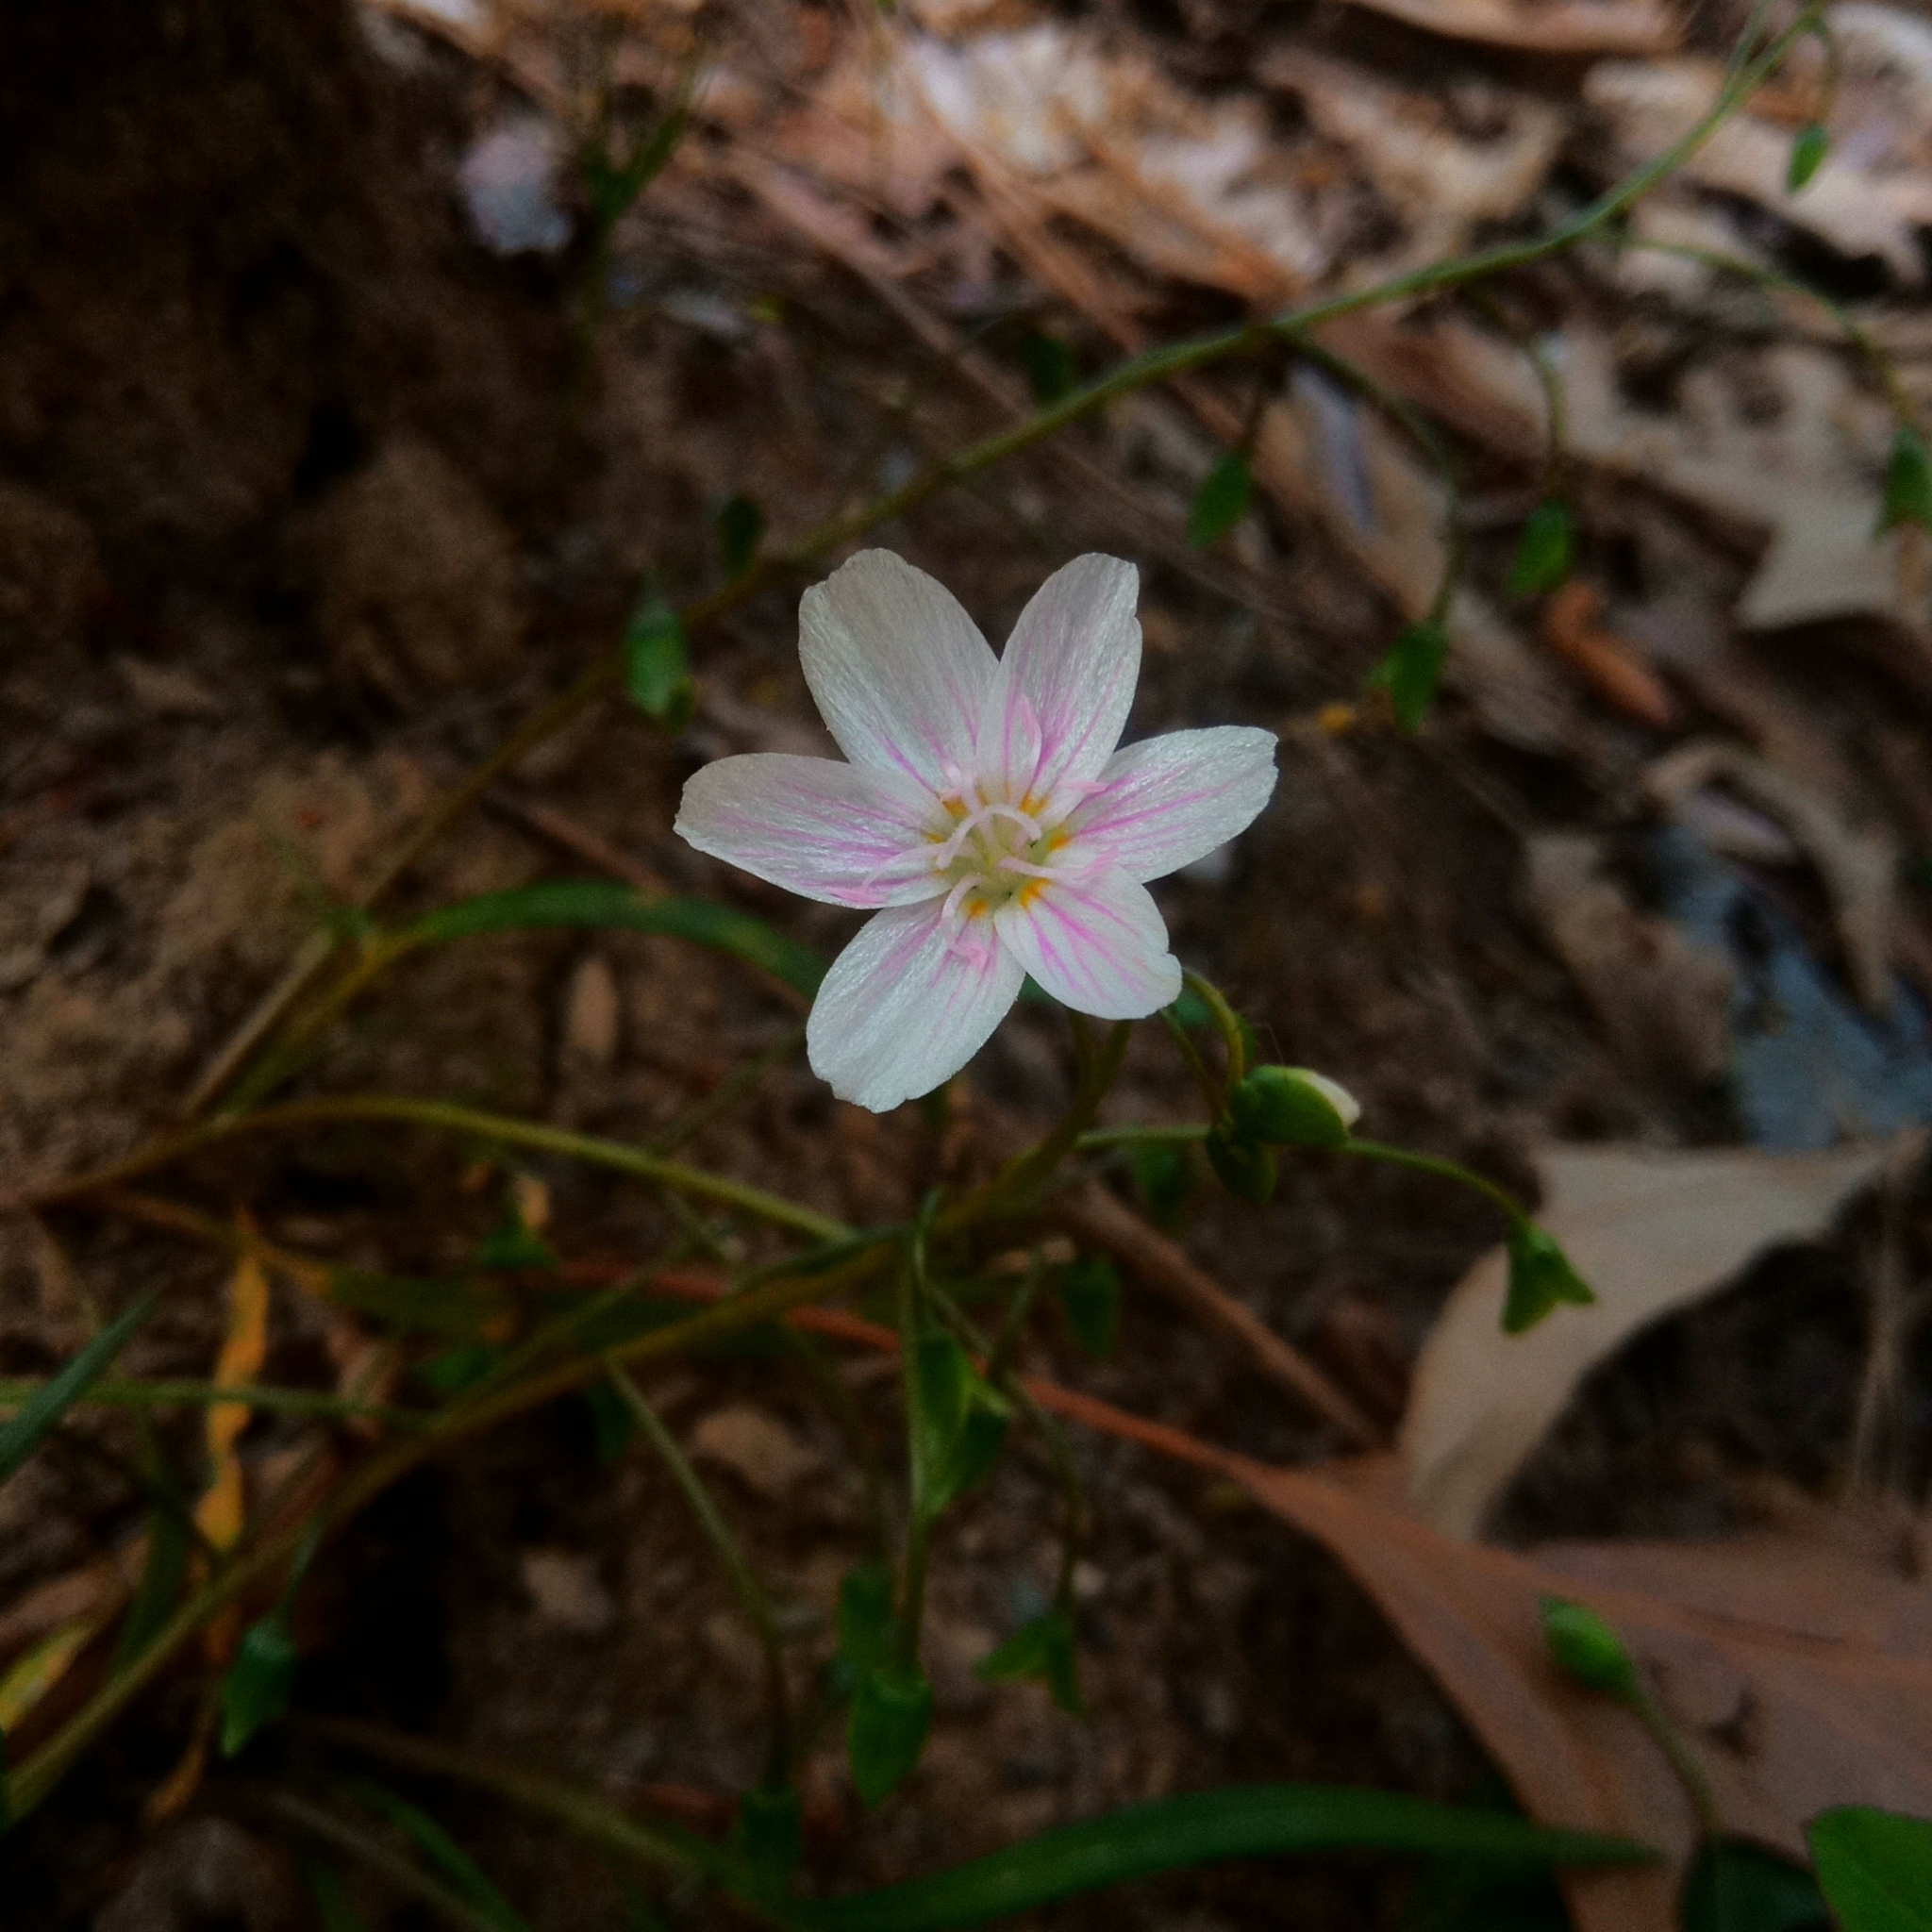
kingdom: Plantae
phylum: Tracheophyta
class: Magnoliopsida
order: Caryophyllales
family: Montiaceae
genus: Claytonia
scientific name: Claytonia virginica
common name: Virginia springbeauty
